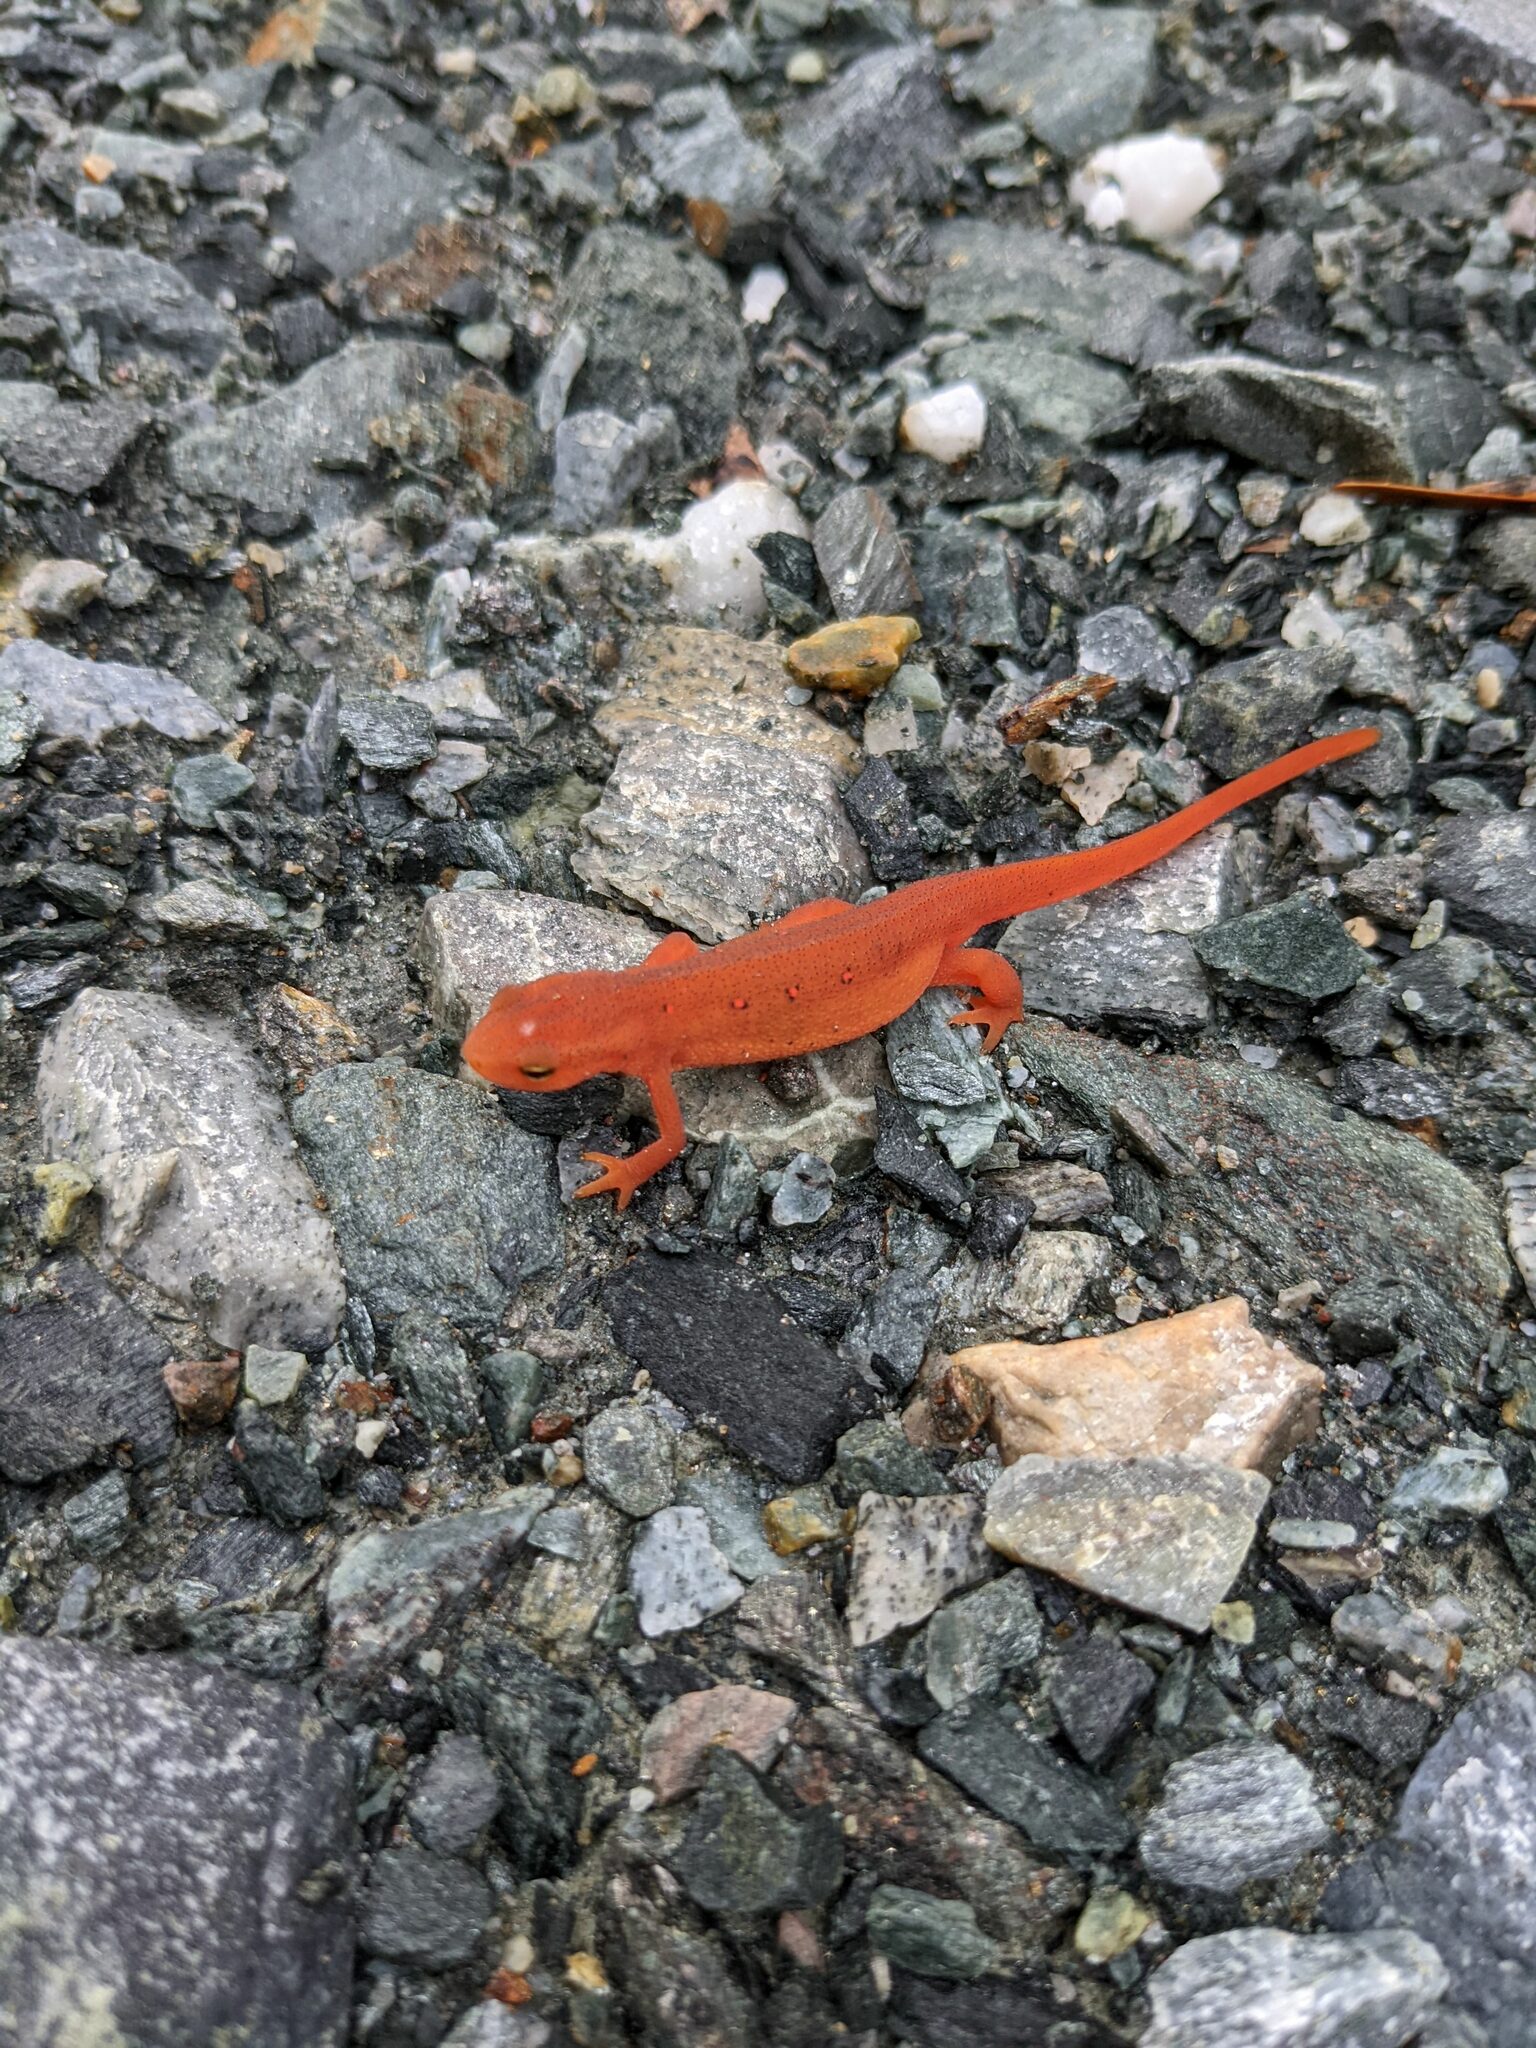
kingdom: Animalia
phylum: Chordata
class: Amphibia
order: Caudata
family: Salamandridae
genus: Notophthalmus
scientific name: Notophthalmus viridescens
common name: Eastern newt
